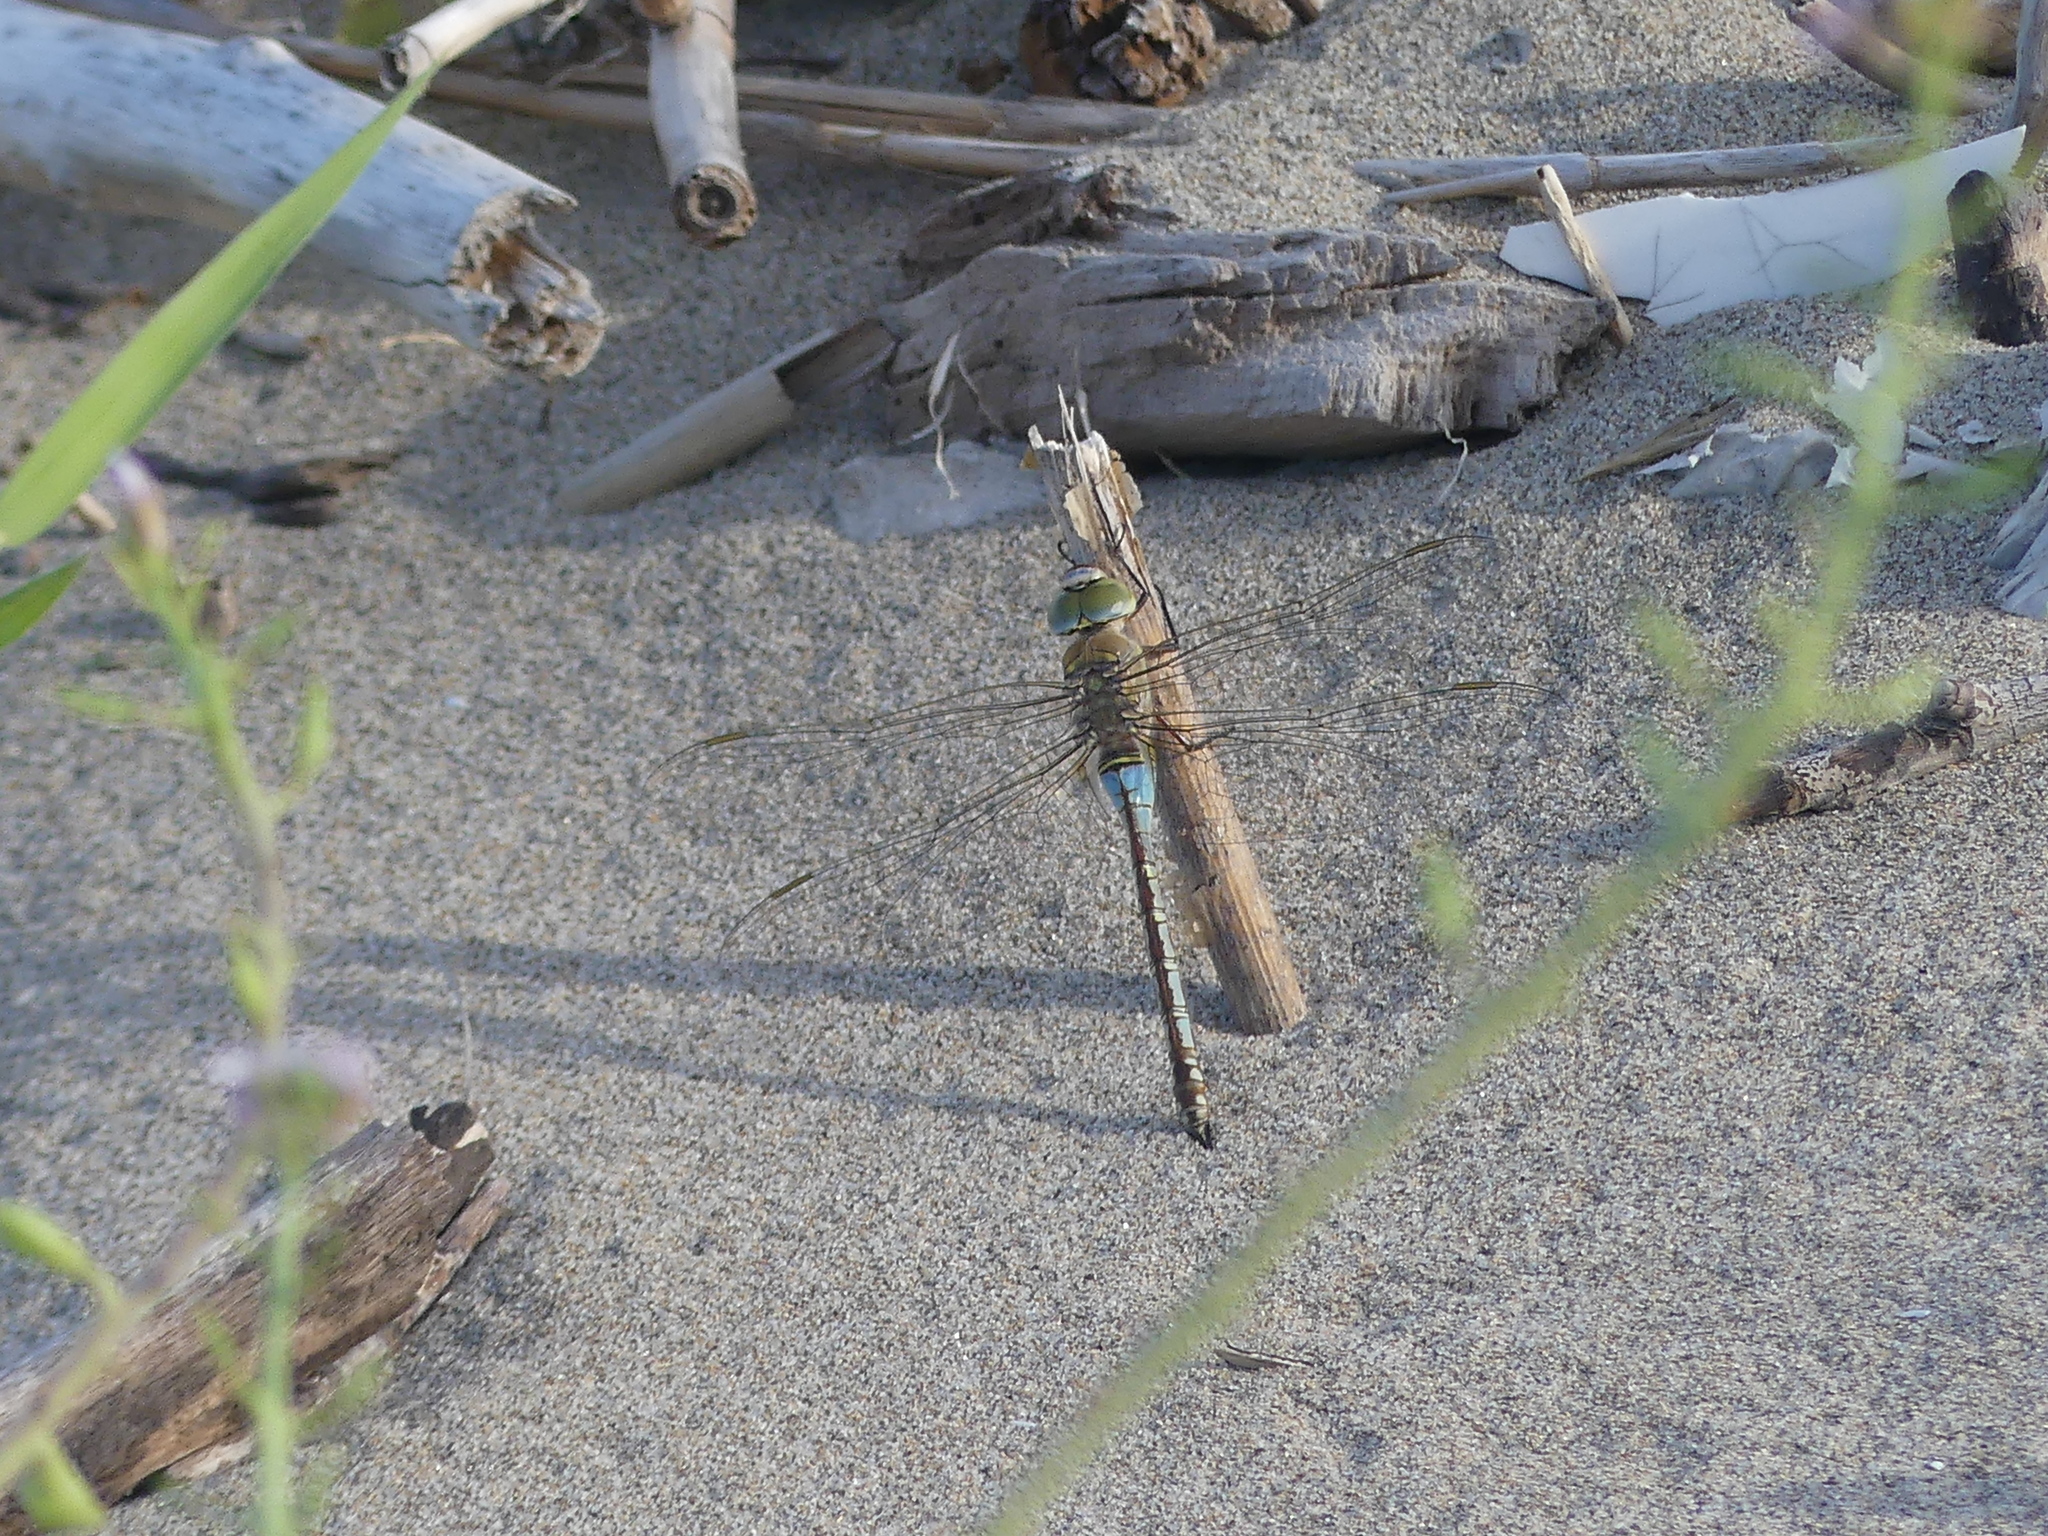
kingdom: Animalia
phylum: Arthropoda
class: Insecta
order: Odonata
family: Aeshnidae
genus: Anax
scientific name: Anax parthenope
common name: Lesser emperor
